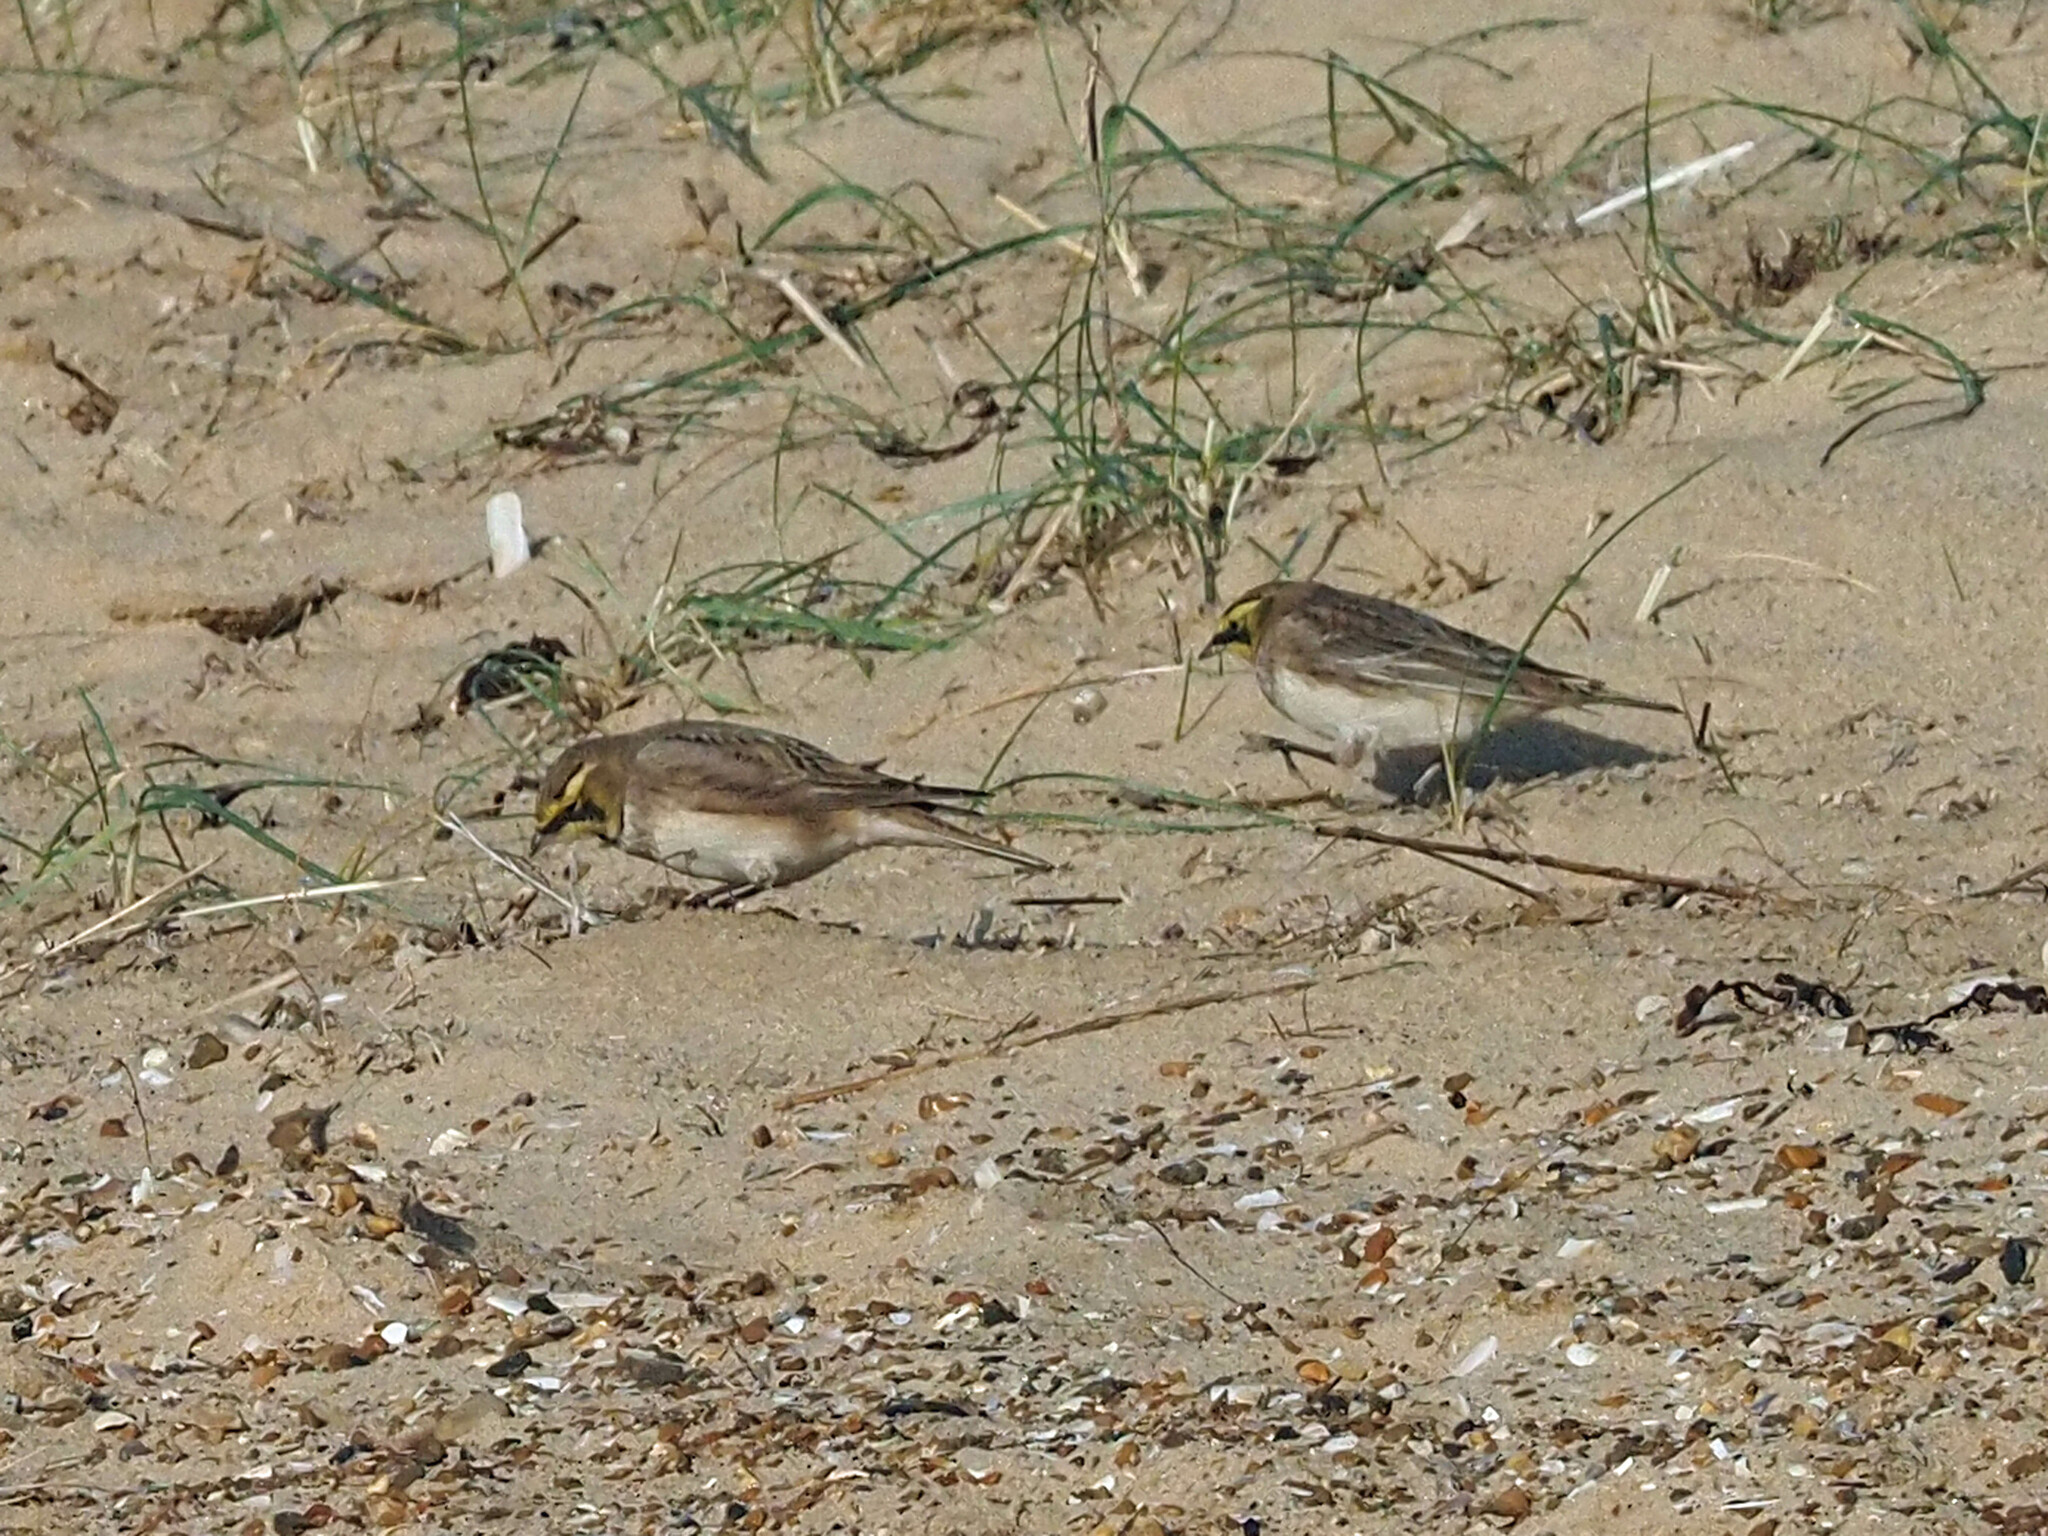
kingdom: Animalia
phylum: Chordata
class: Aves
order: Passeriformes
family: Alaudidae
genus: Eremophila
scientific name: Eremophila alpestris
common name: Horned lark
